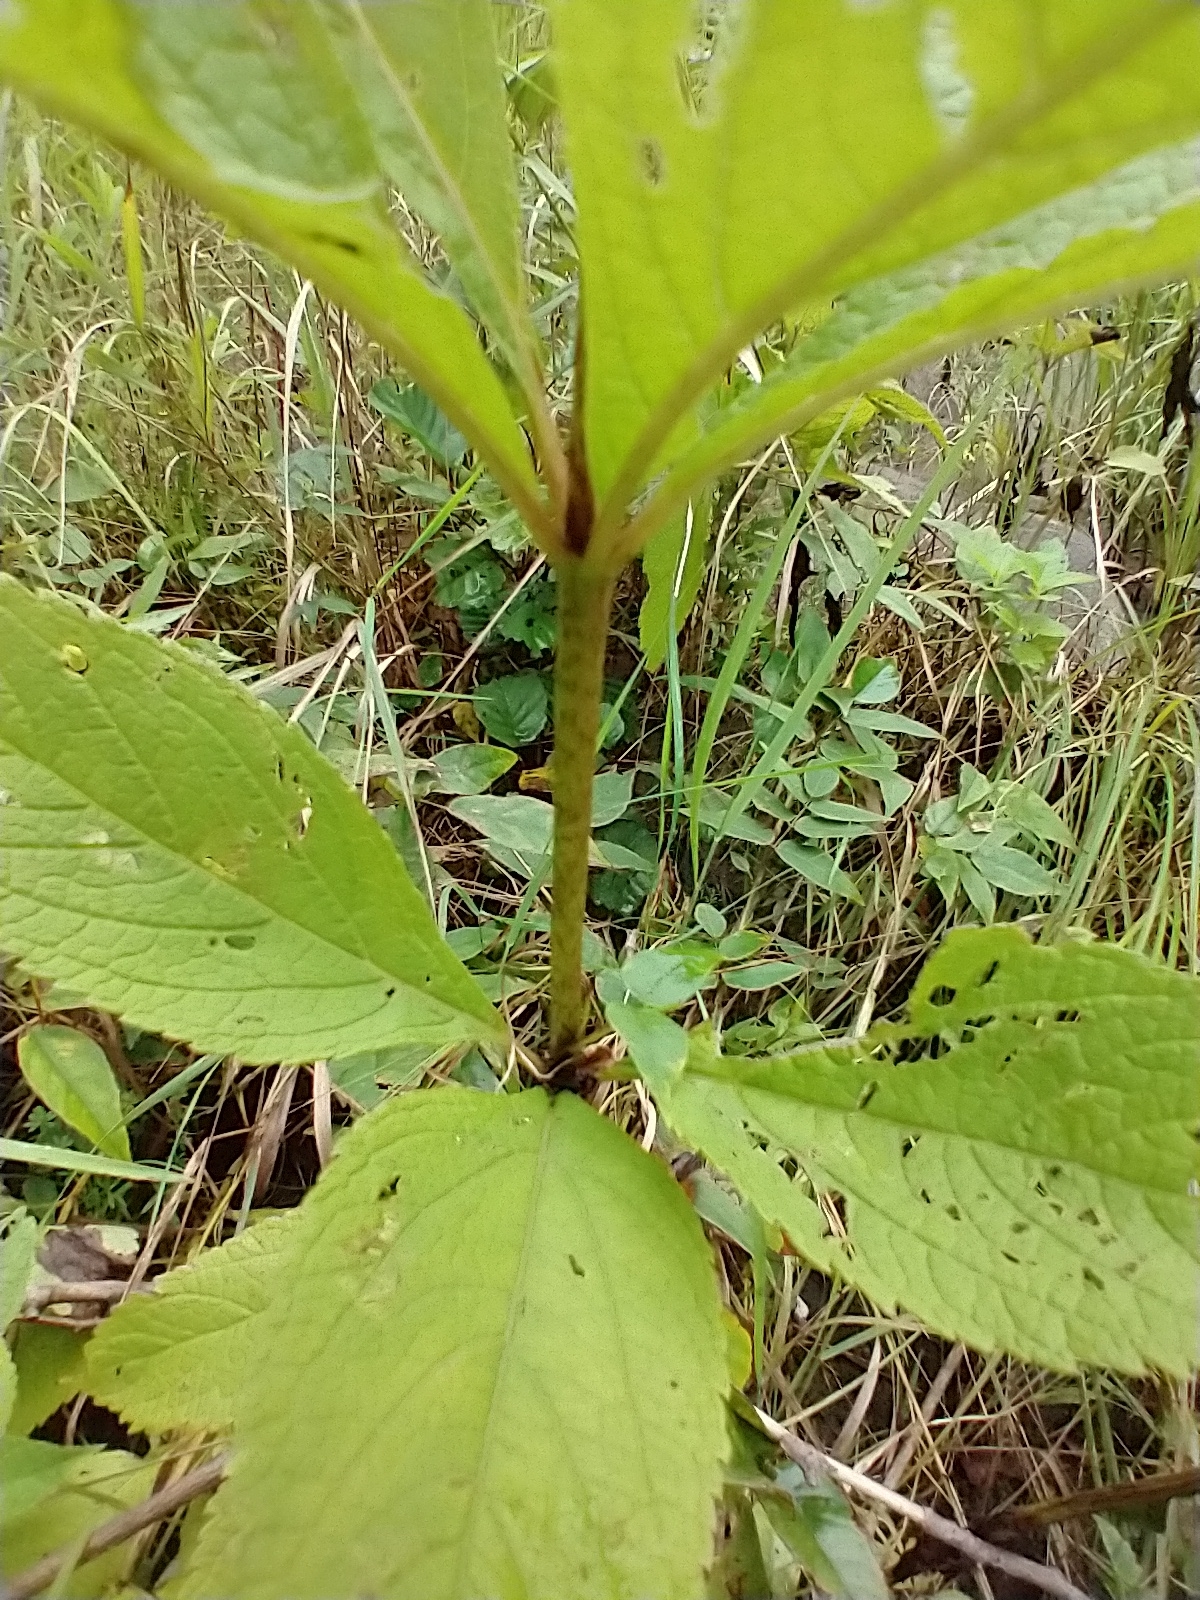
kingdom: Plantae
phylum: Tracheophyta
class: Magnoliopsida
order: Asterales
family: Asteraceae
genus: Eutrochium
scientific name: Eutrochium maculatum
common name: Spotted joe pye weed
